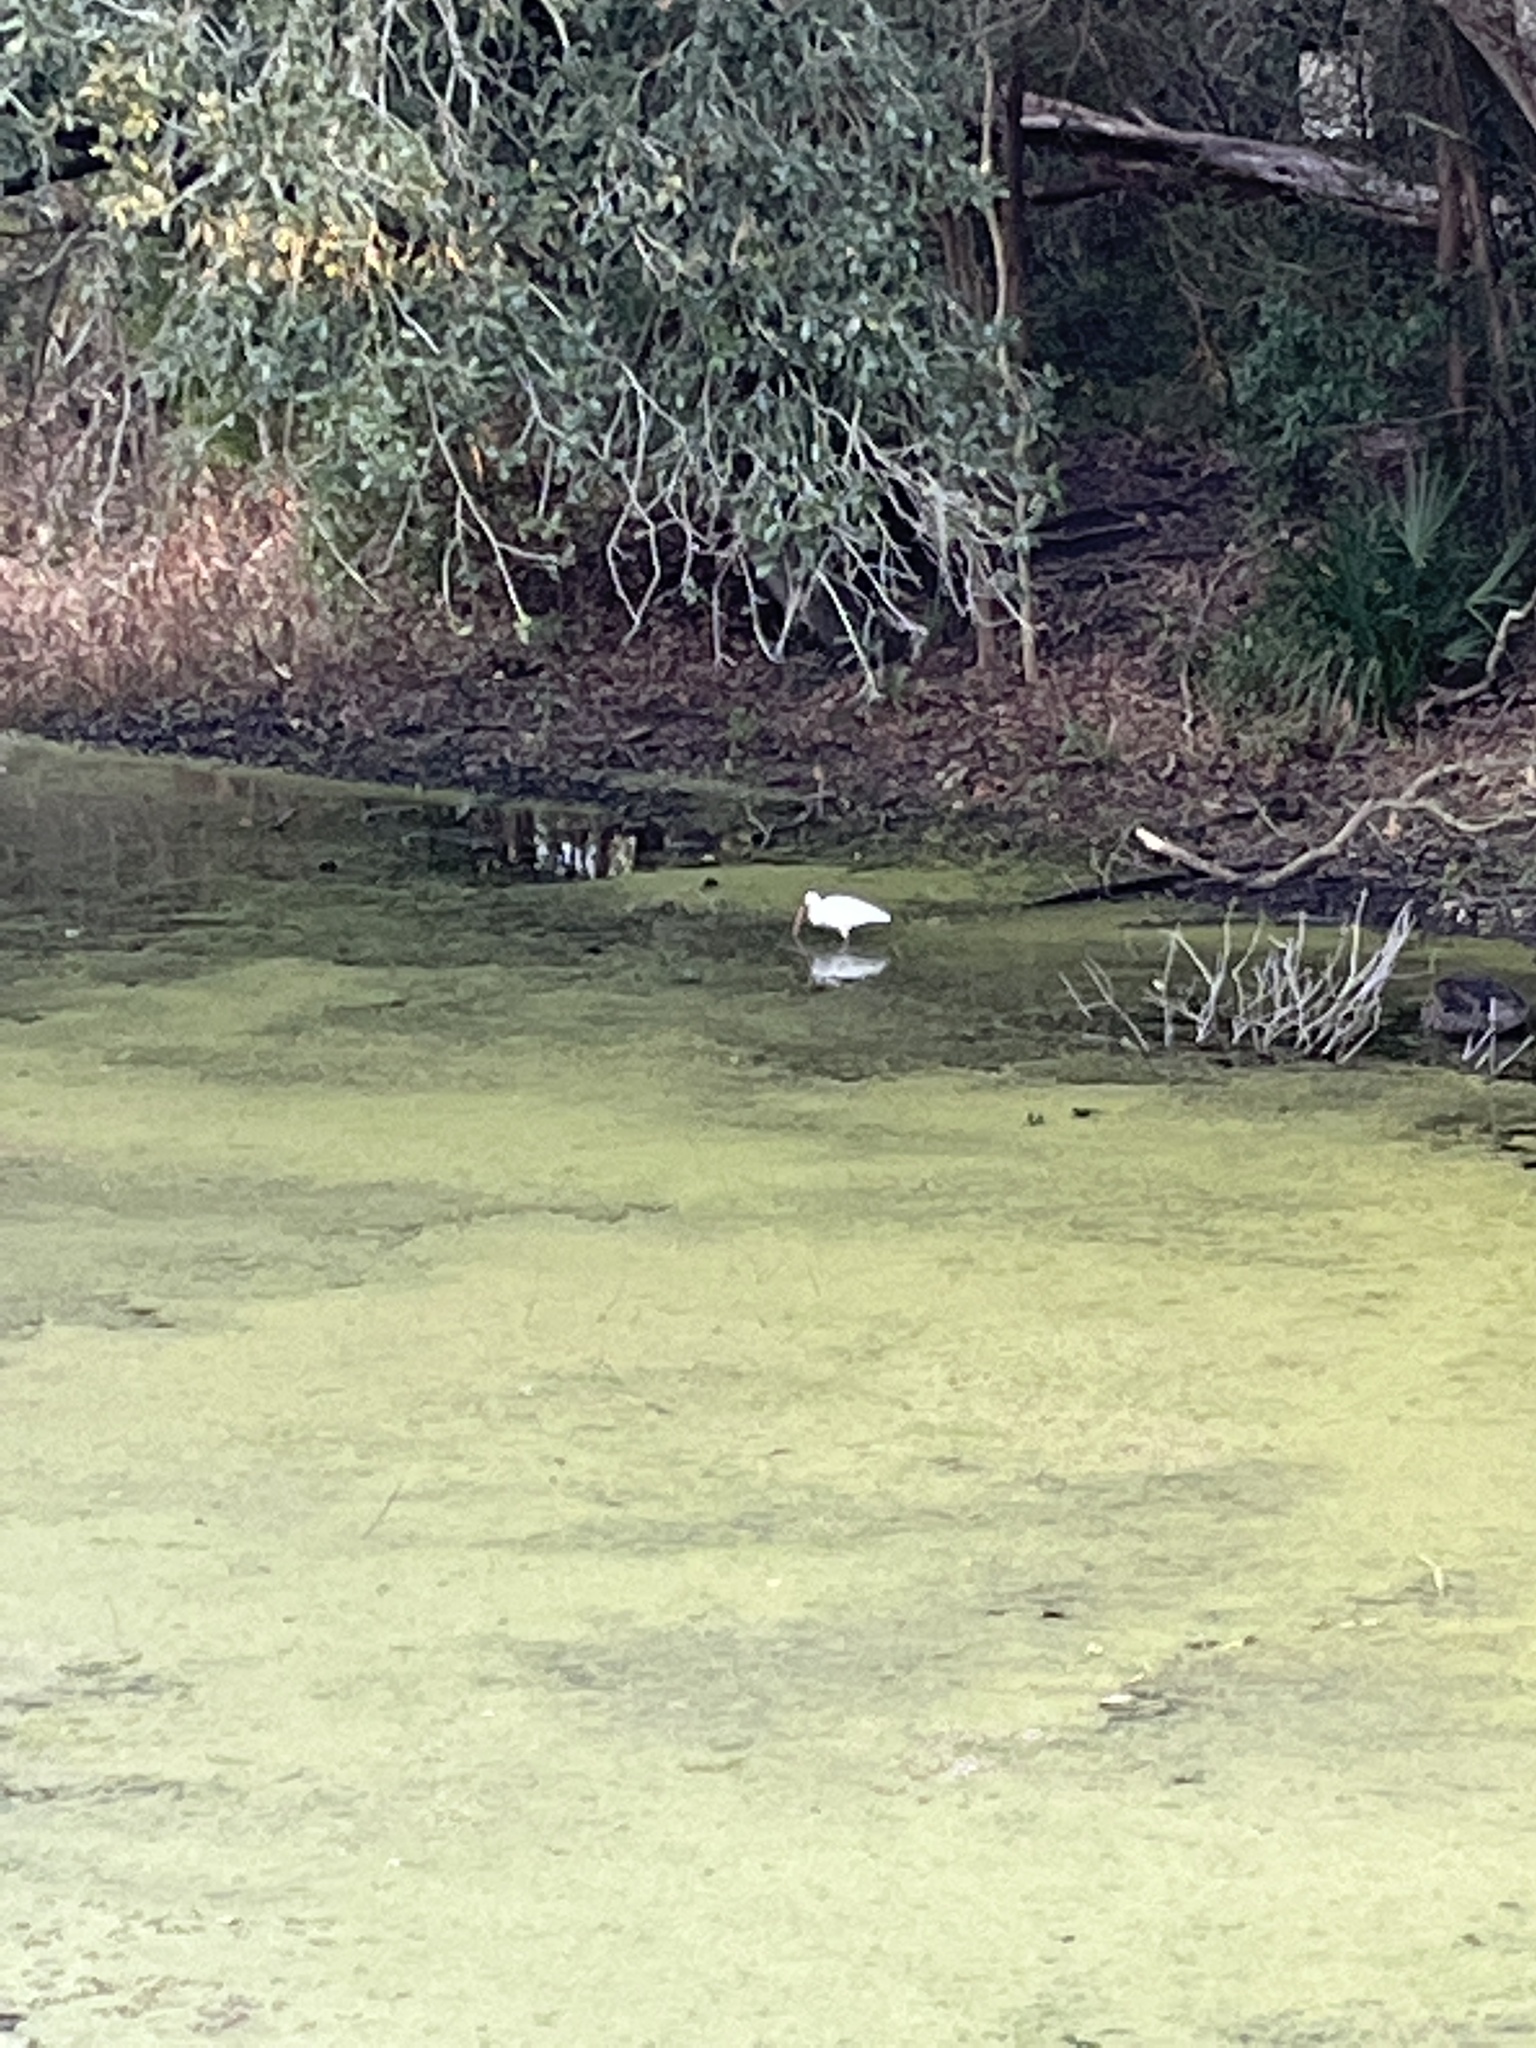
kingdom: Animalia
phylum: Chordata
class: Aves
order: Pelecaniformes
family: Threskiornithidae
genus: Eudocimus
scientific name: Eudocimus albus
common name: White ibis
